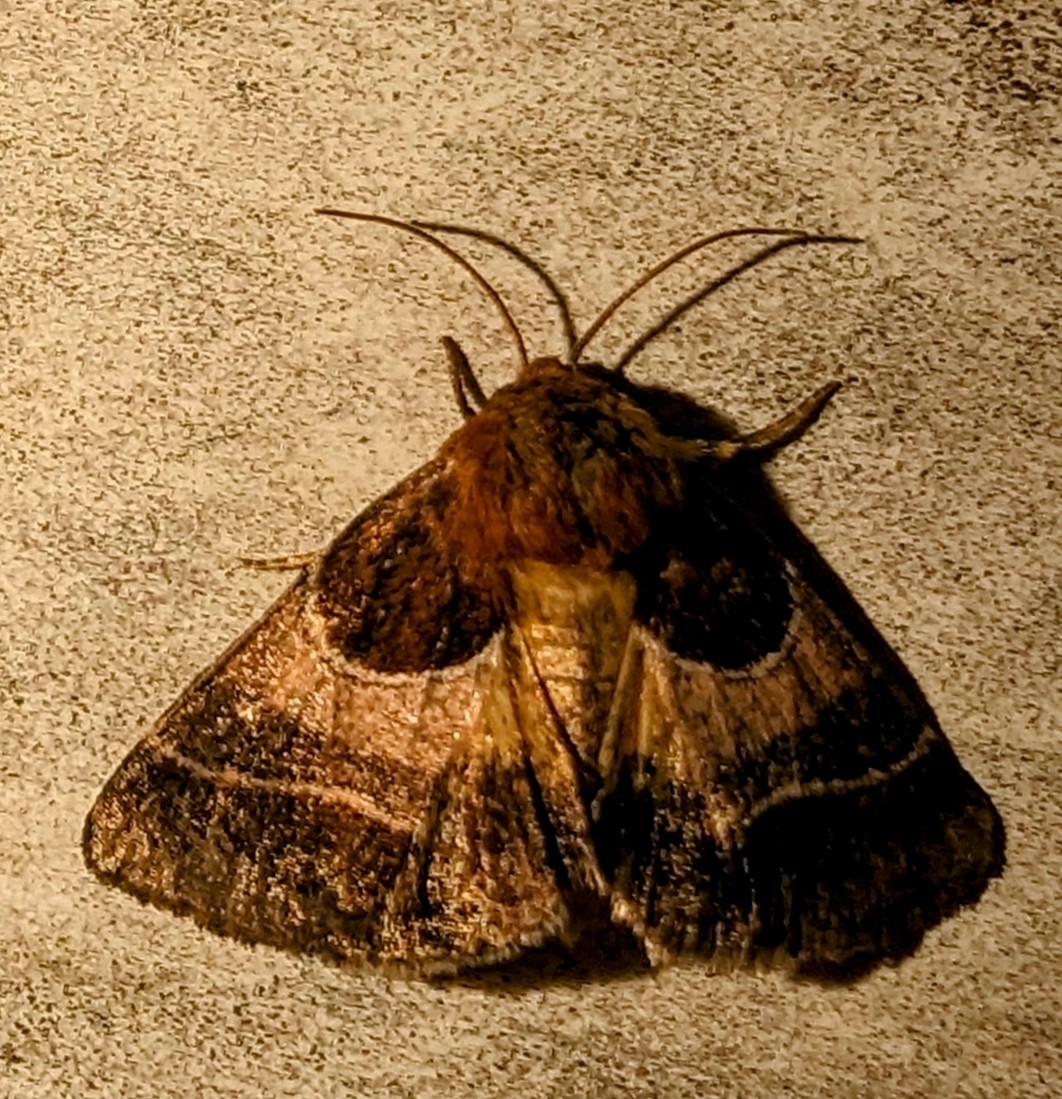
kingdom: Animalia
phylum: Arthropoda
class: Insecta
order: Lepidoptera
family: Noctuidae
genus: Schinia
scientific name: Schinia arcigera
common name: Arcigera flower moth
